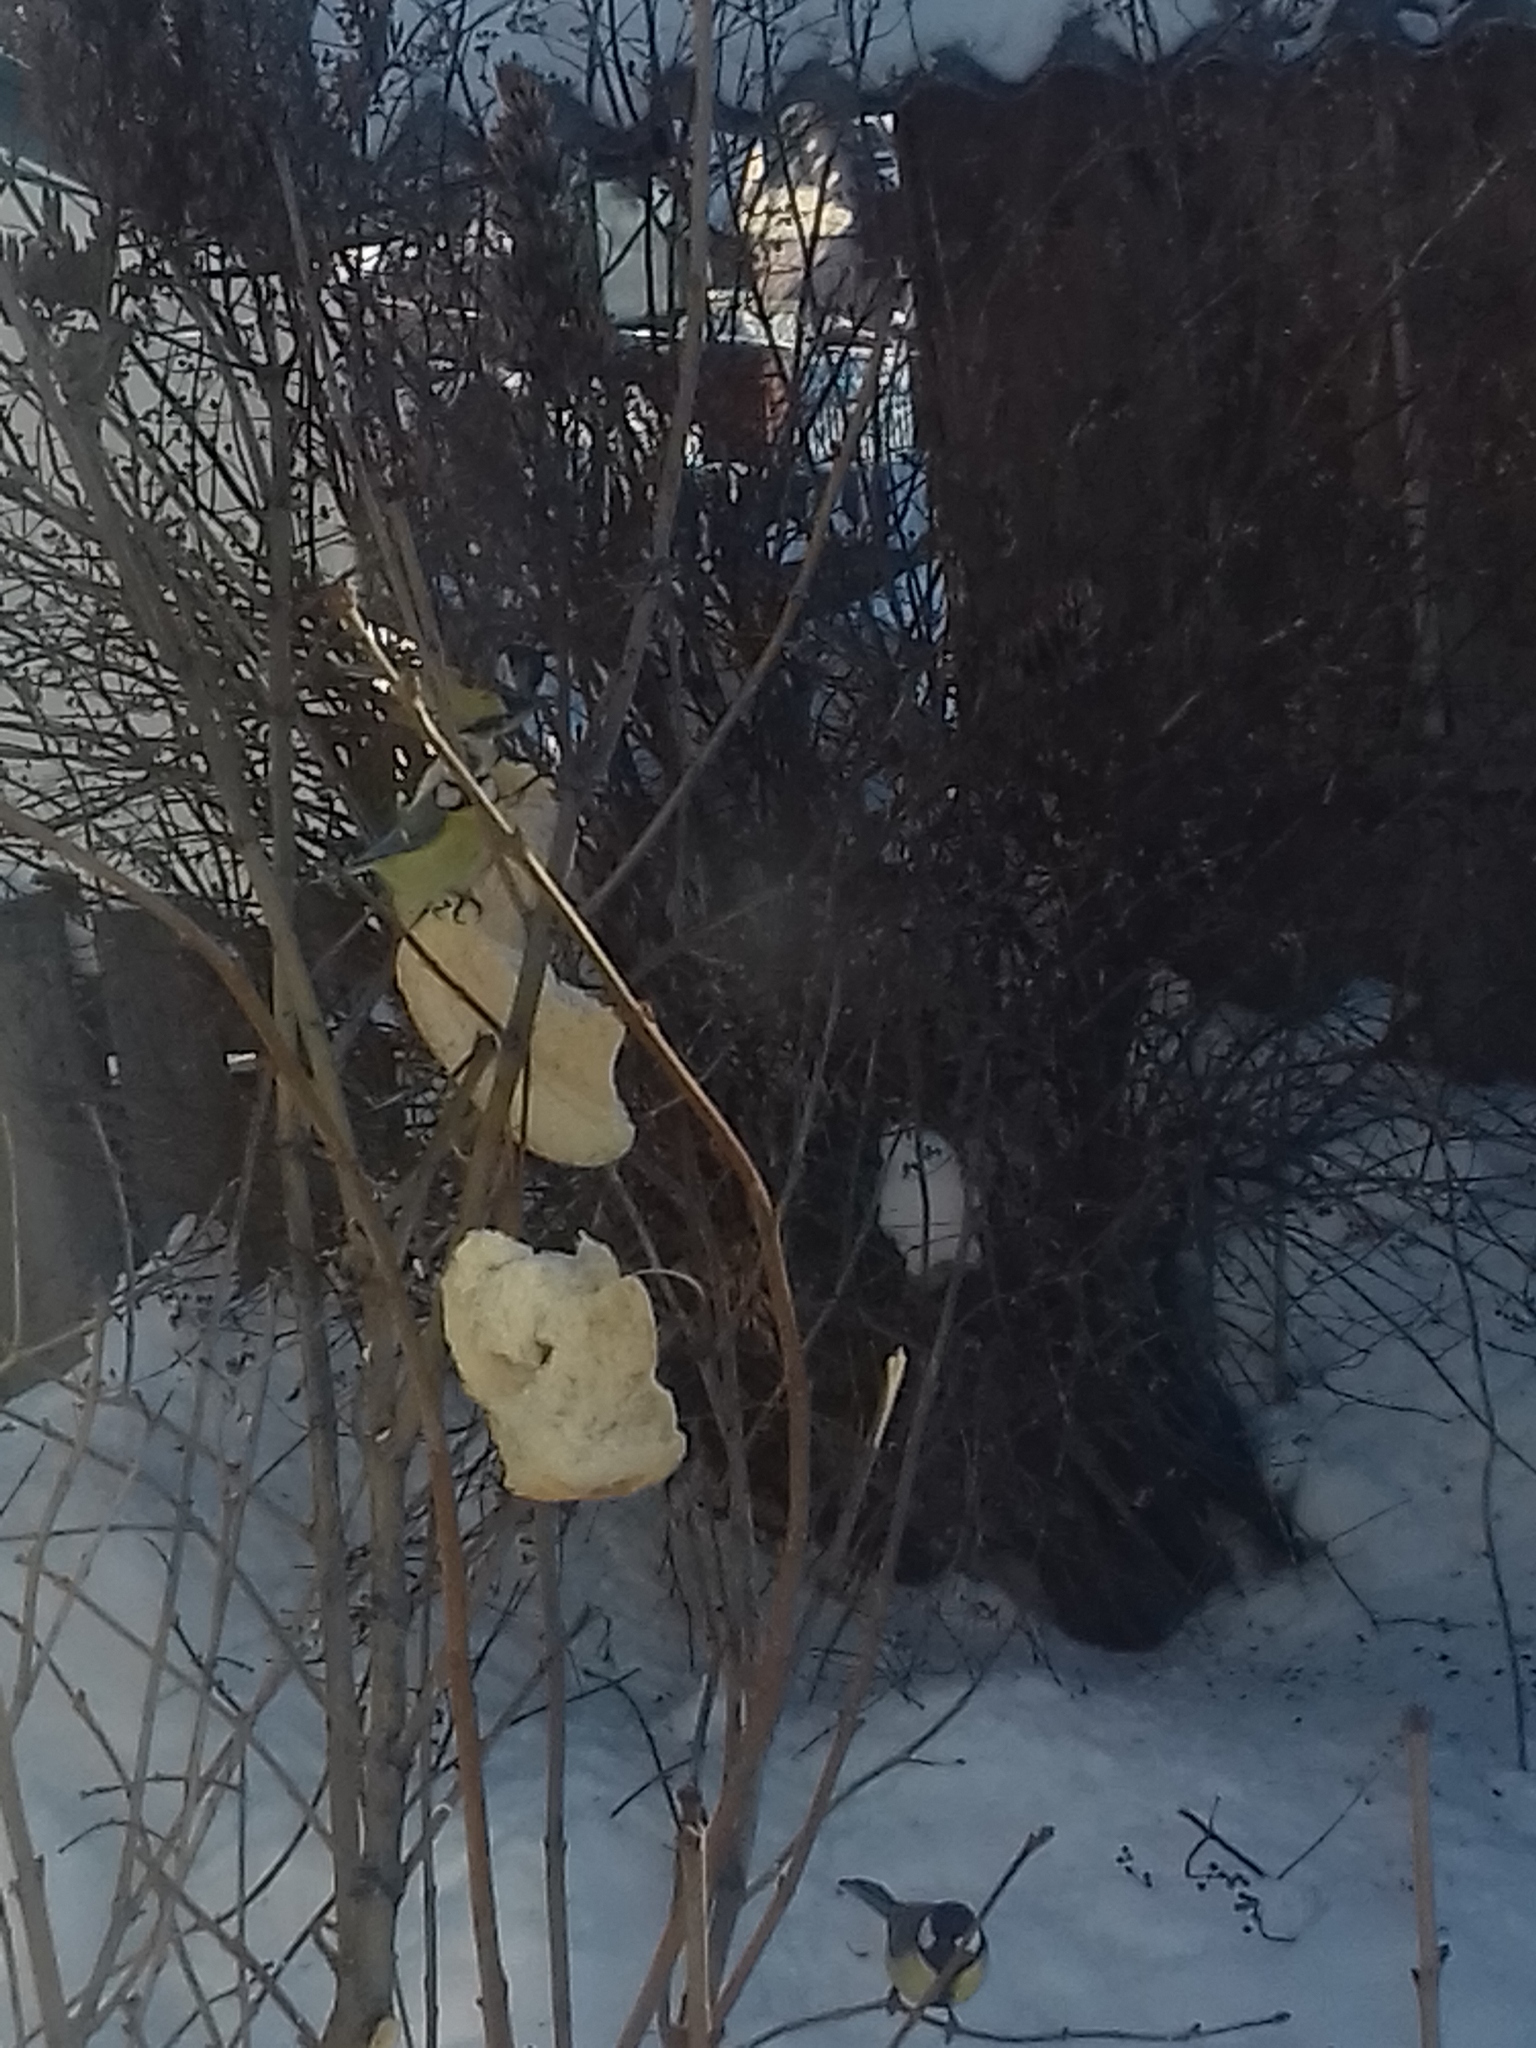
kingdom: Animalia
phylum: Chordata
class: Aves
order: Passeriformes
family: Paridae
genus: Cyanistes
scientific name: Cyanistes caeruleus
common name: Eurasian blue tit
